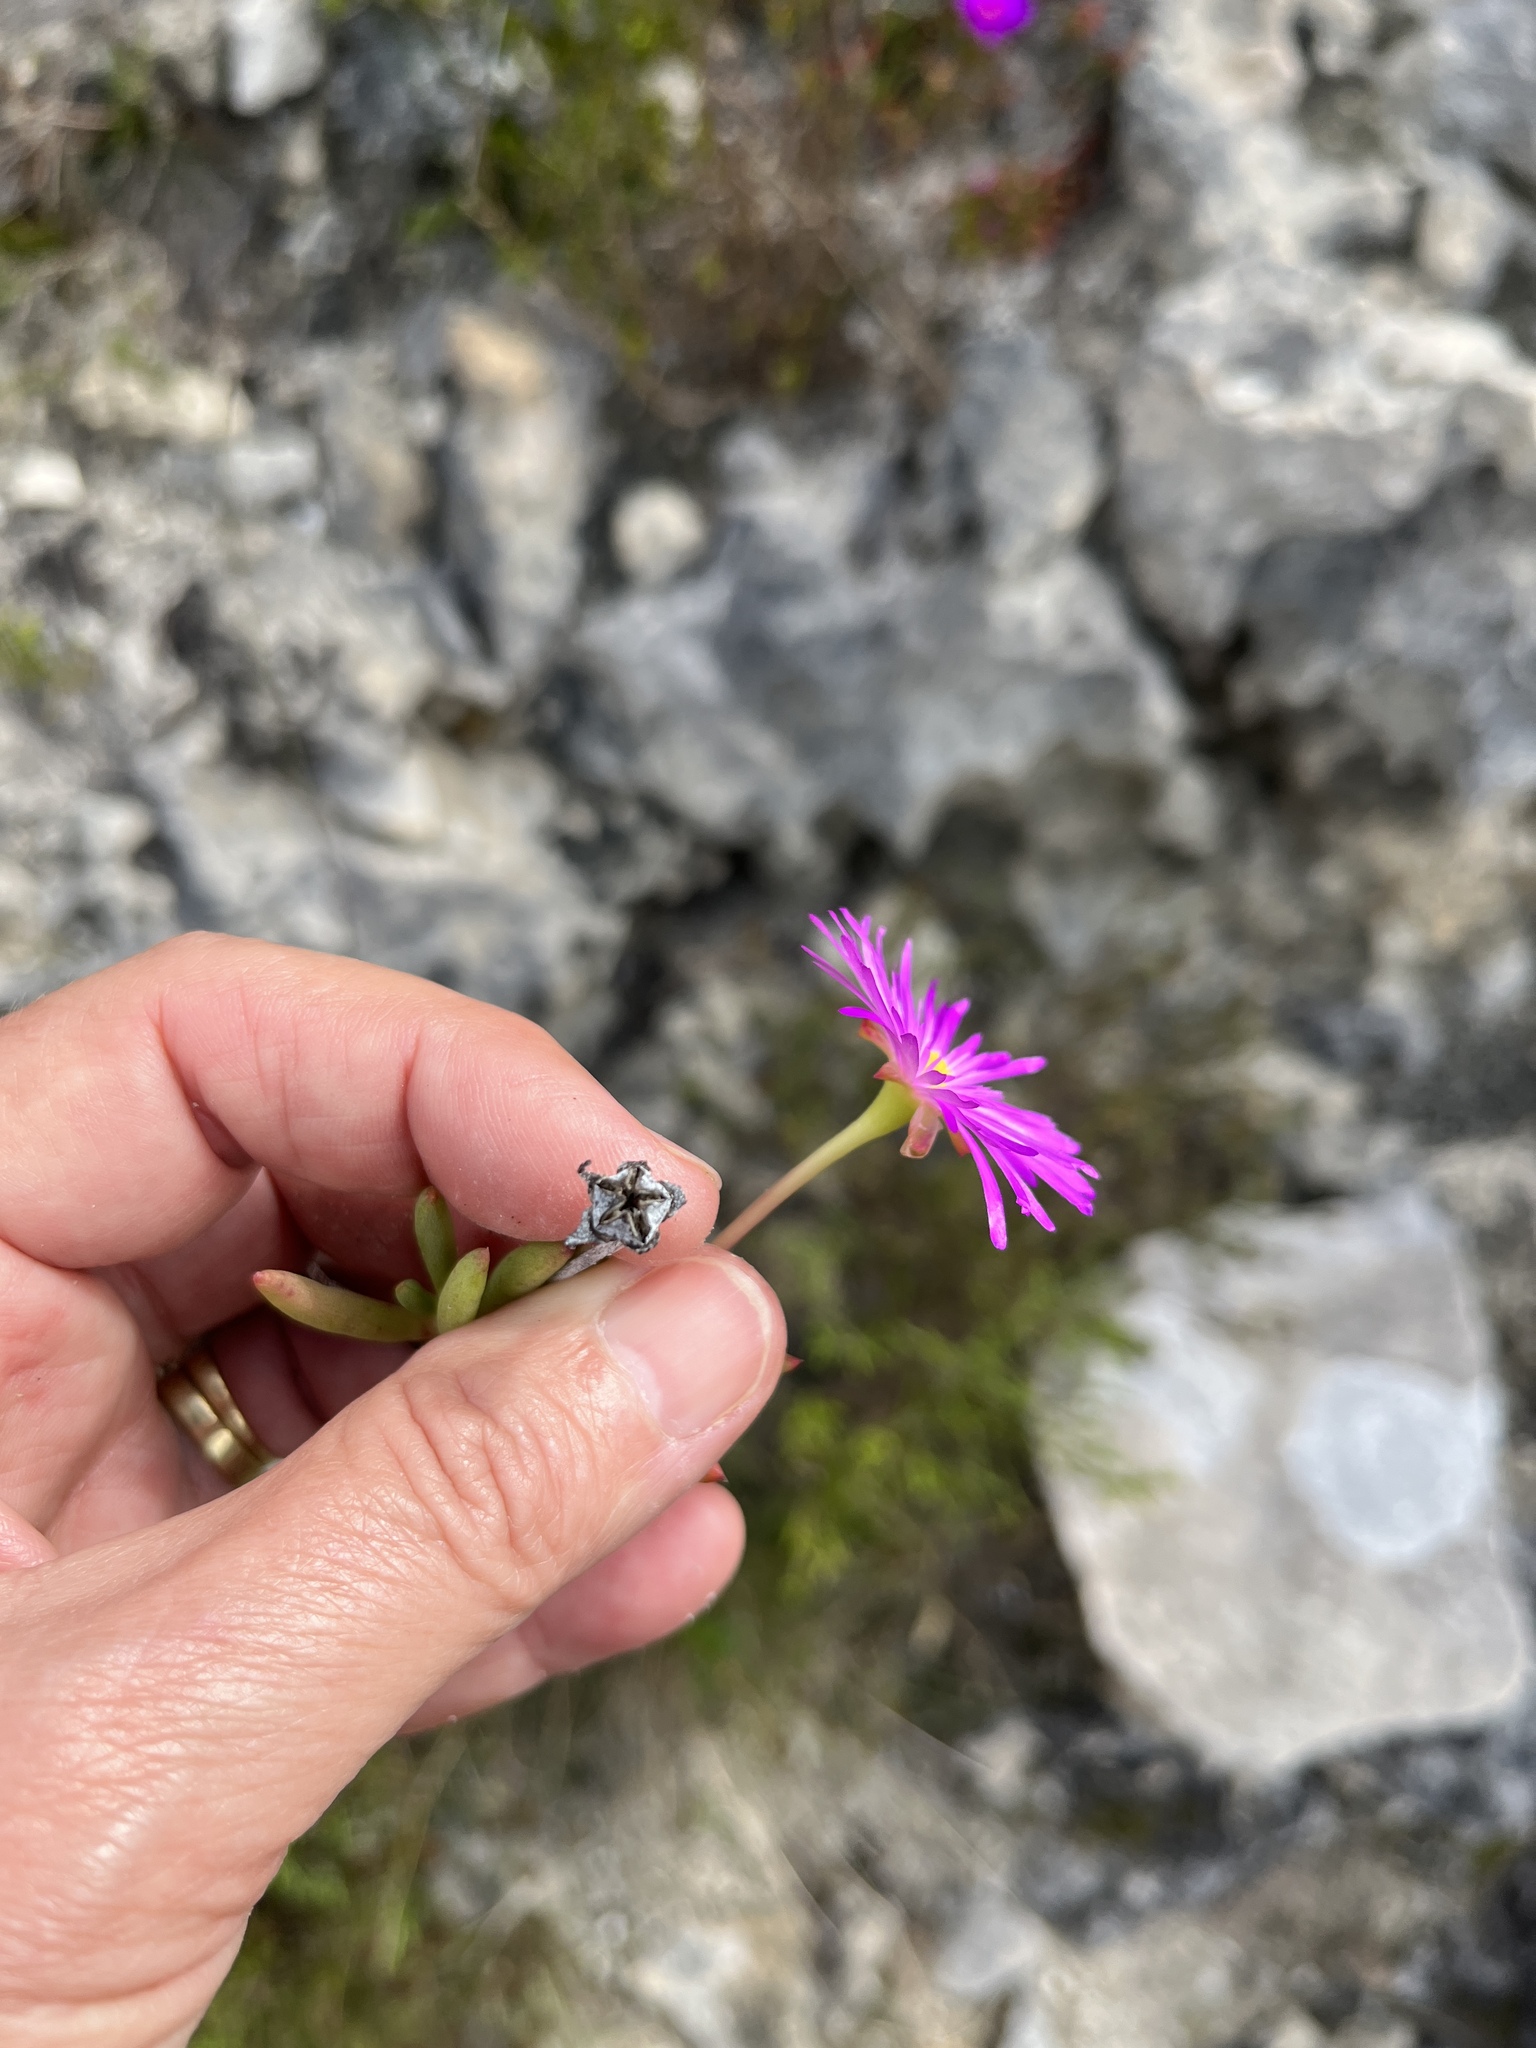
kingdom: Plantae
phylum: Tracheophyta
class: Magnoliopsida
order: Caryophyllales
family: Aizoaceae
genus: Lampranthus
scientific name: Lampranthus ceriseus
